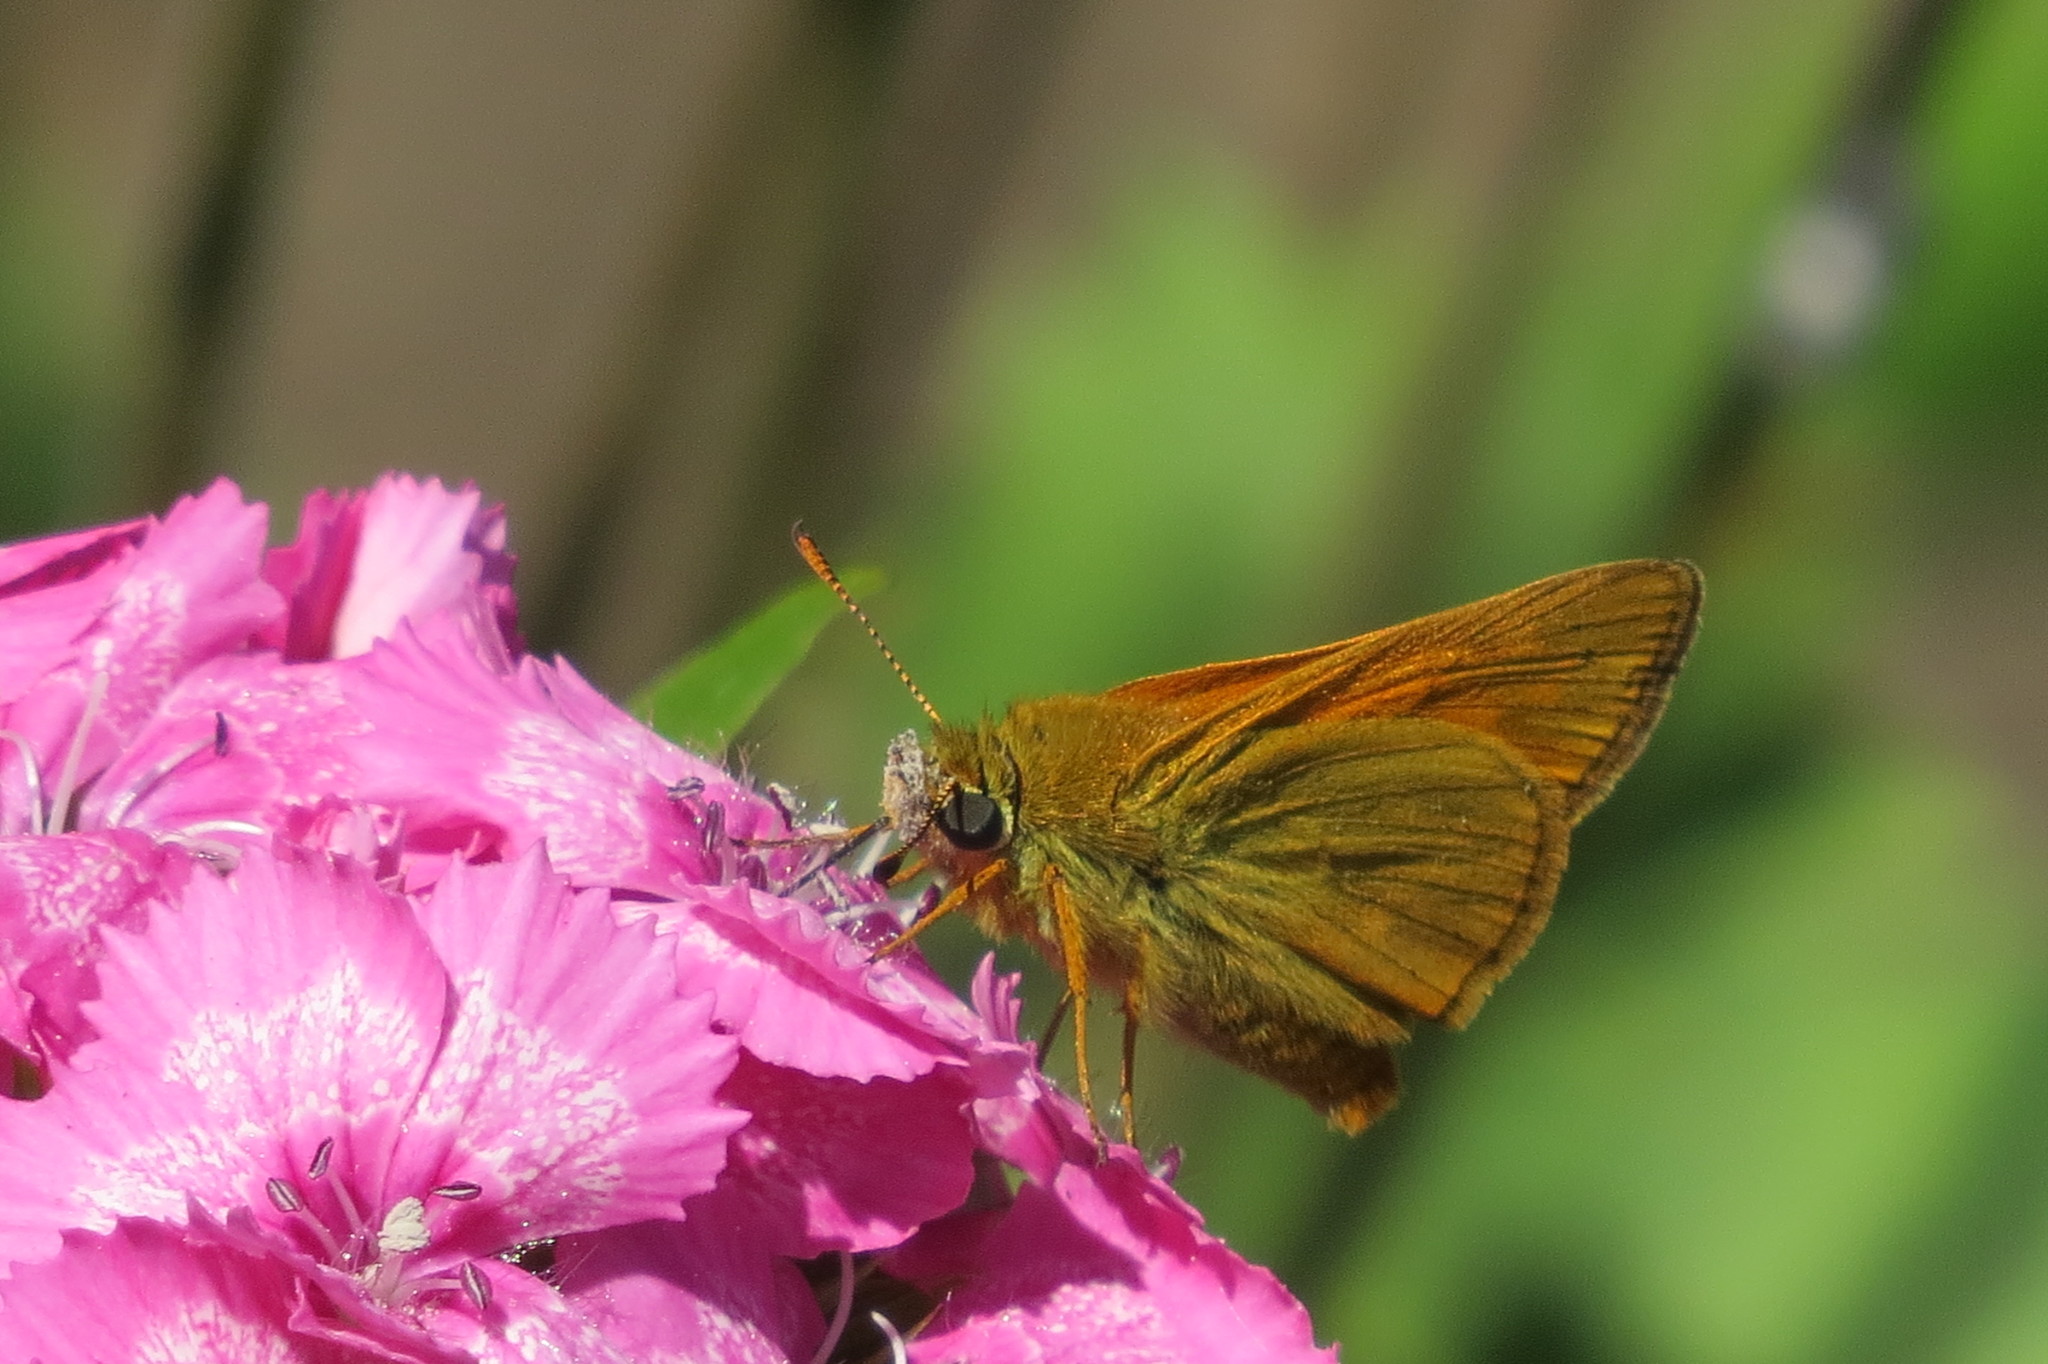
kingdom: Animalia
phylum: Arthropoda
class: Insecta
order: Lepidoptera
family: Hesperiidae
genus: Ochlodes
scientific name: Ochlodes venata
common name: Large skipper
